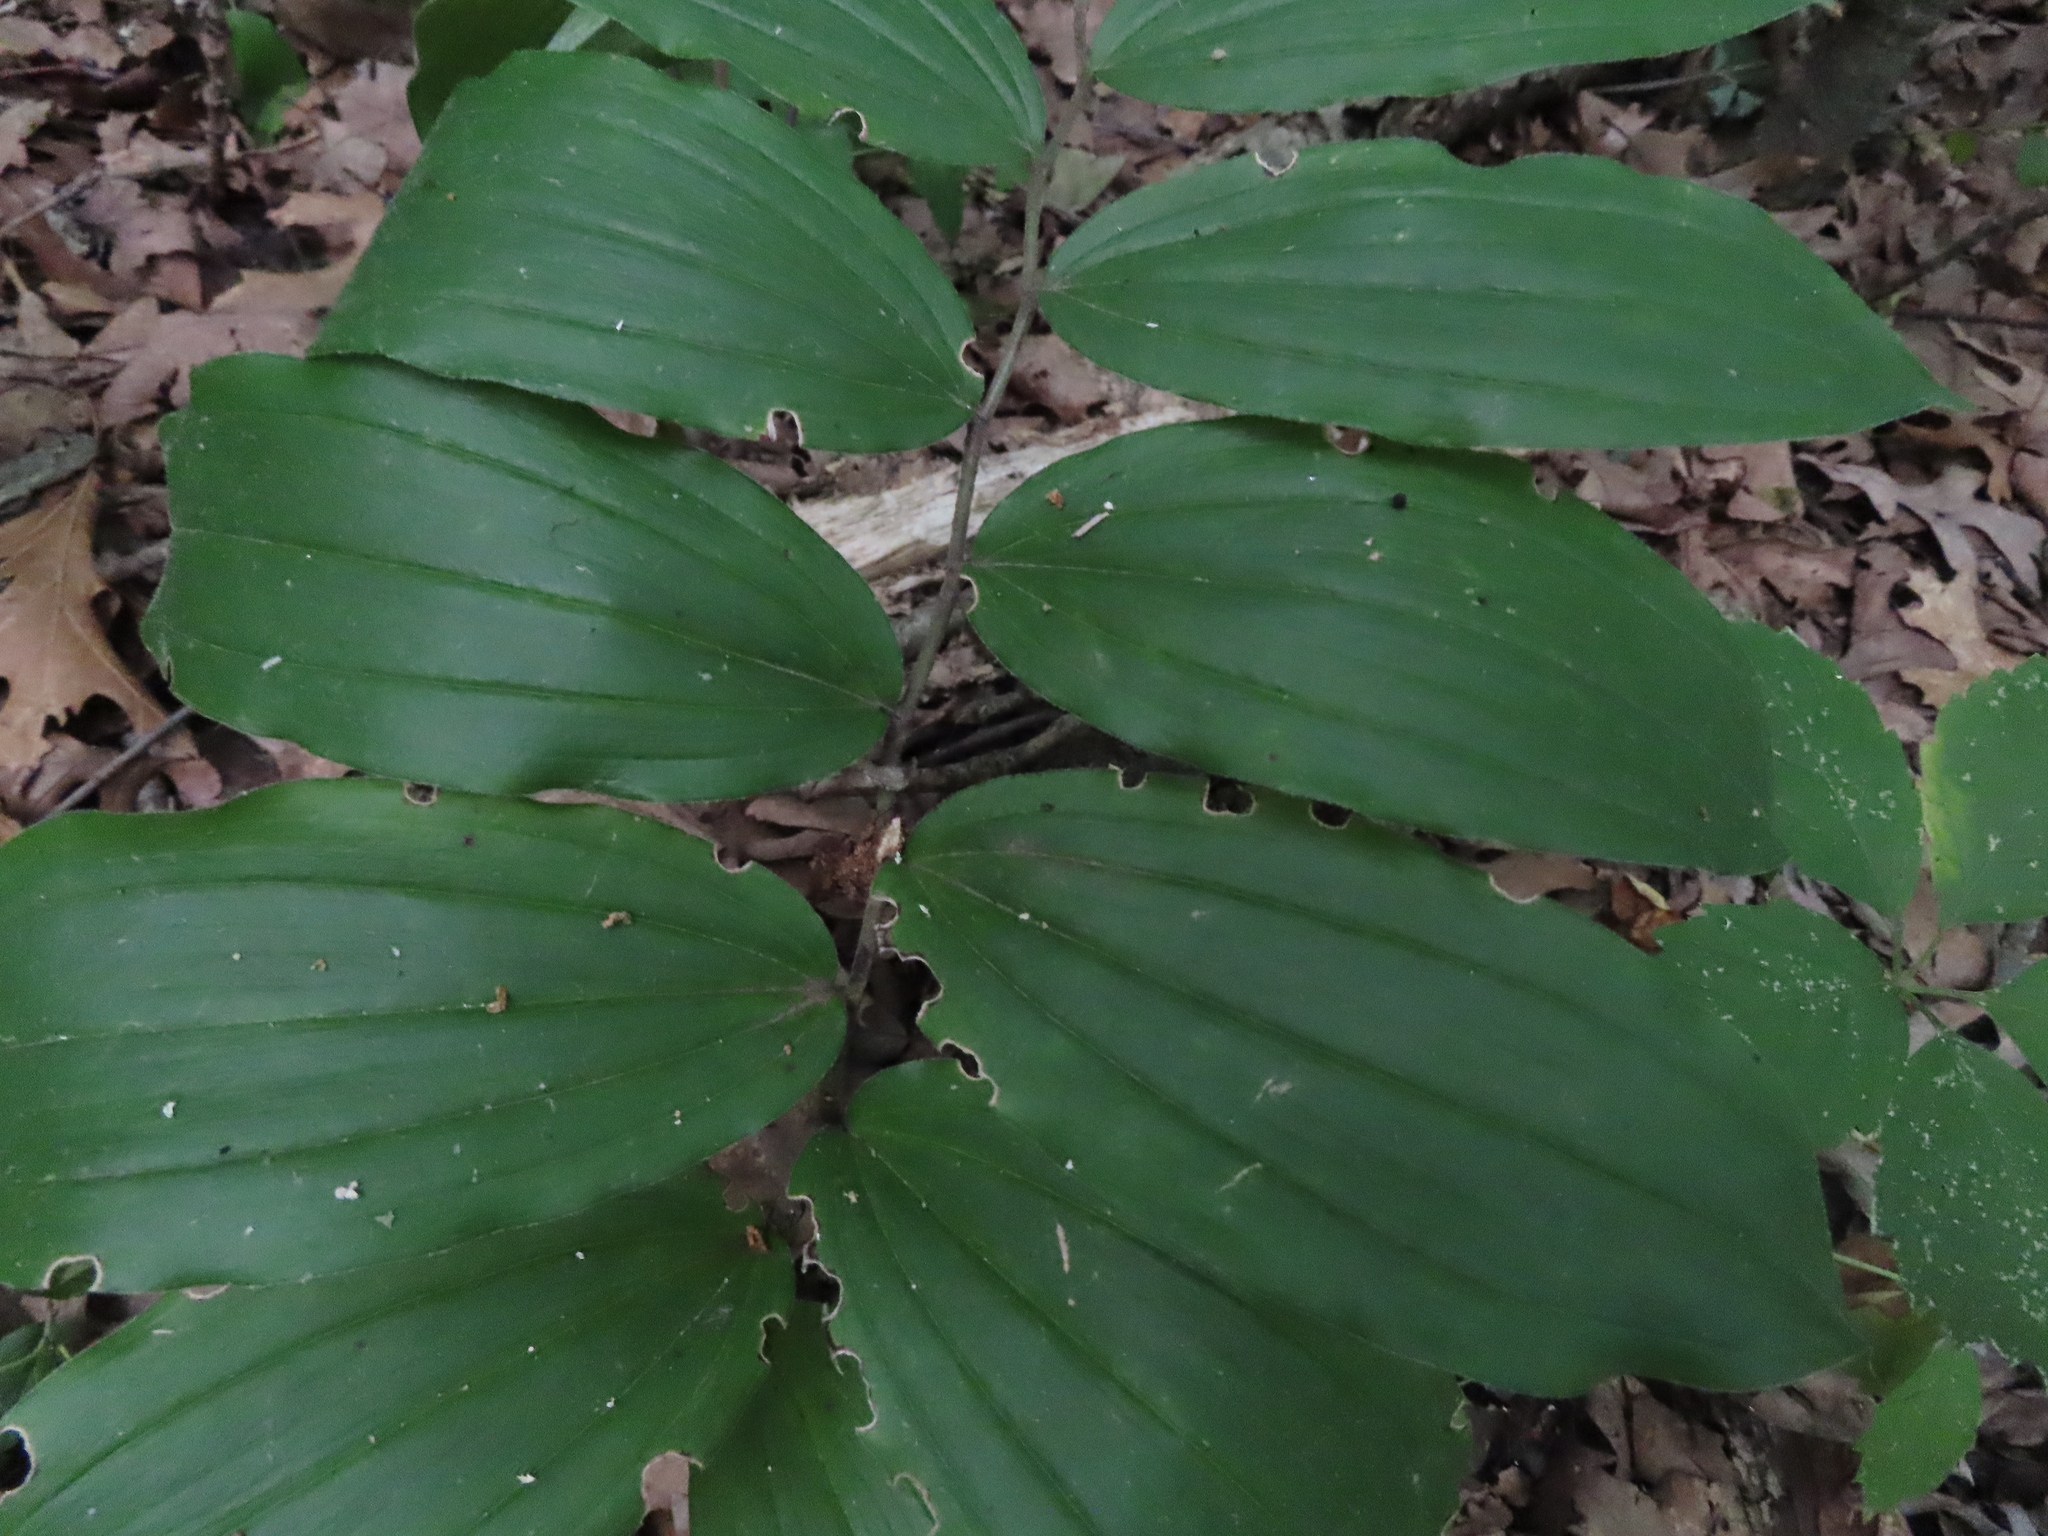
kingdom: Plantae
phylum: Tracheophyta
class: Liliopsida
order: Asparagales
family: Asparagaceae
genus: Maianthemum
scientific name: Maianthemum racemosum
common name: False spikenard
